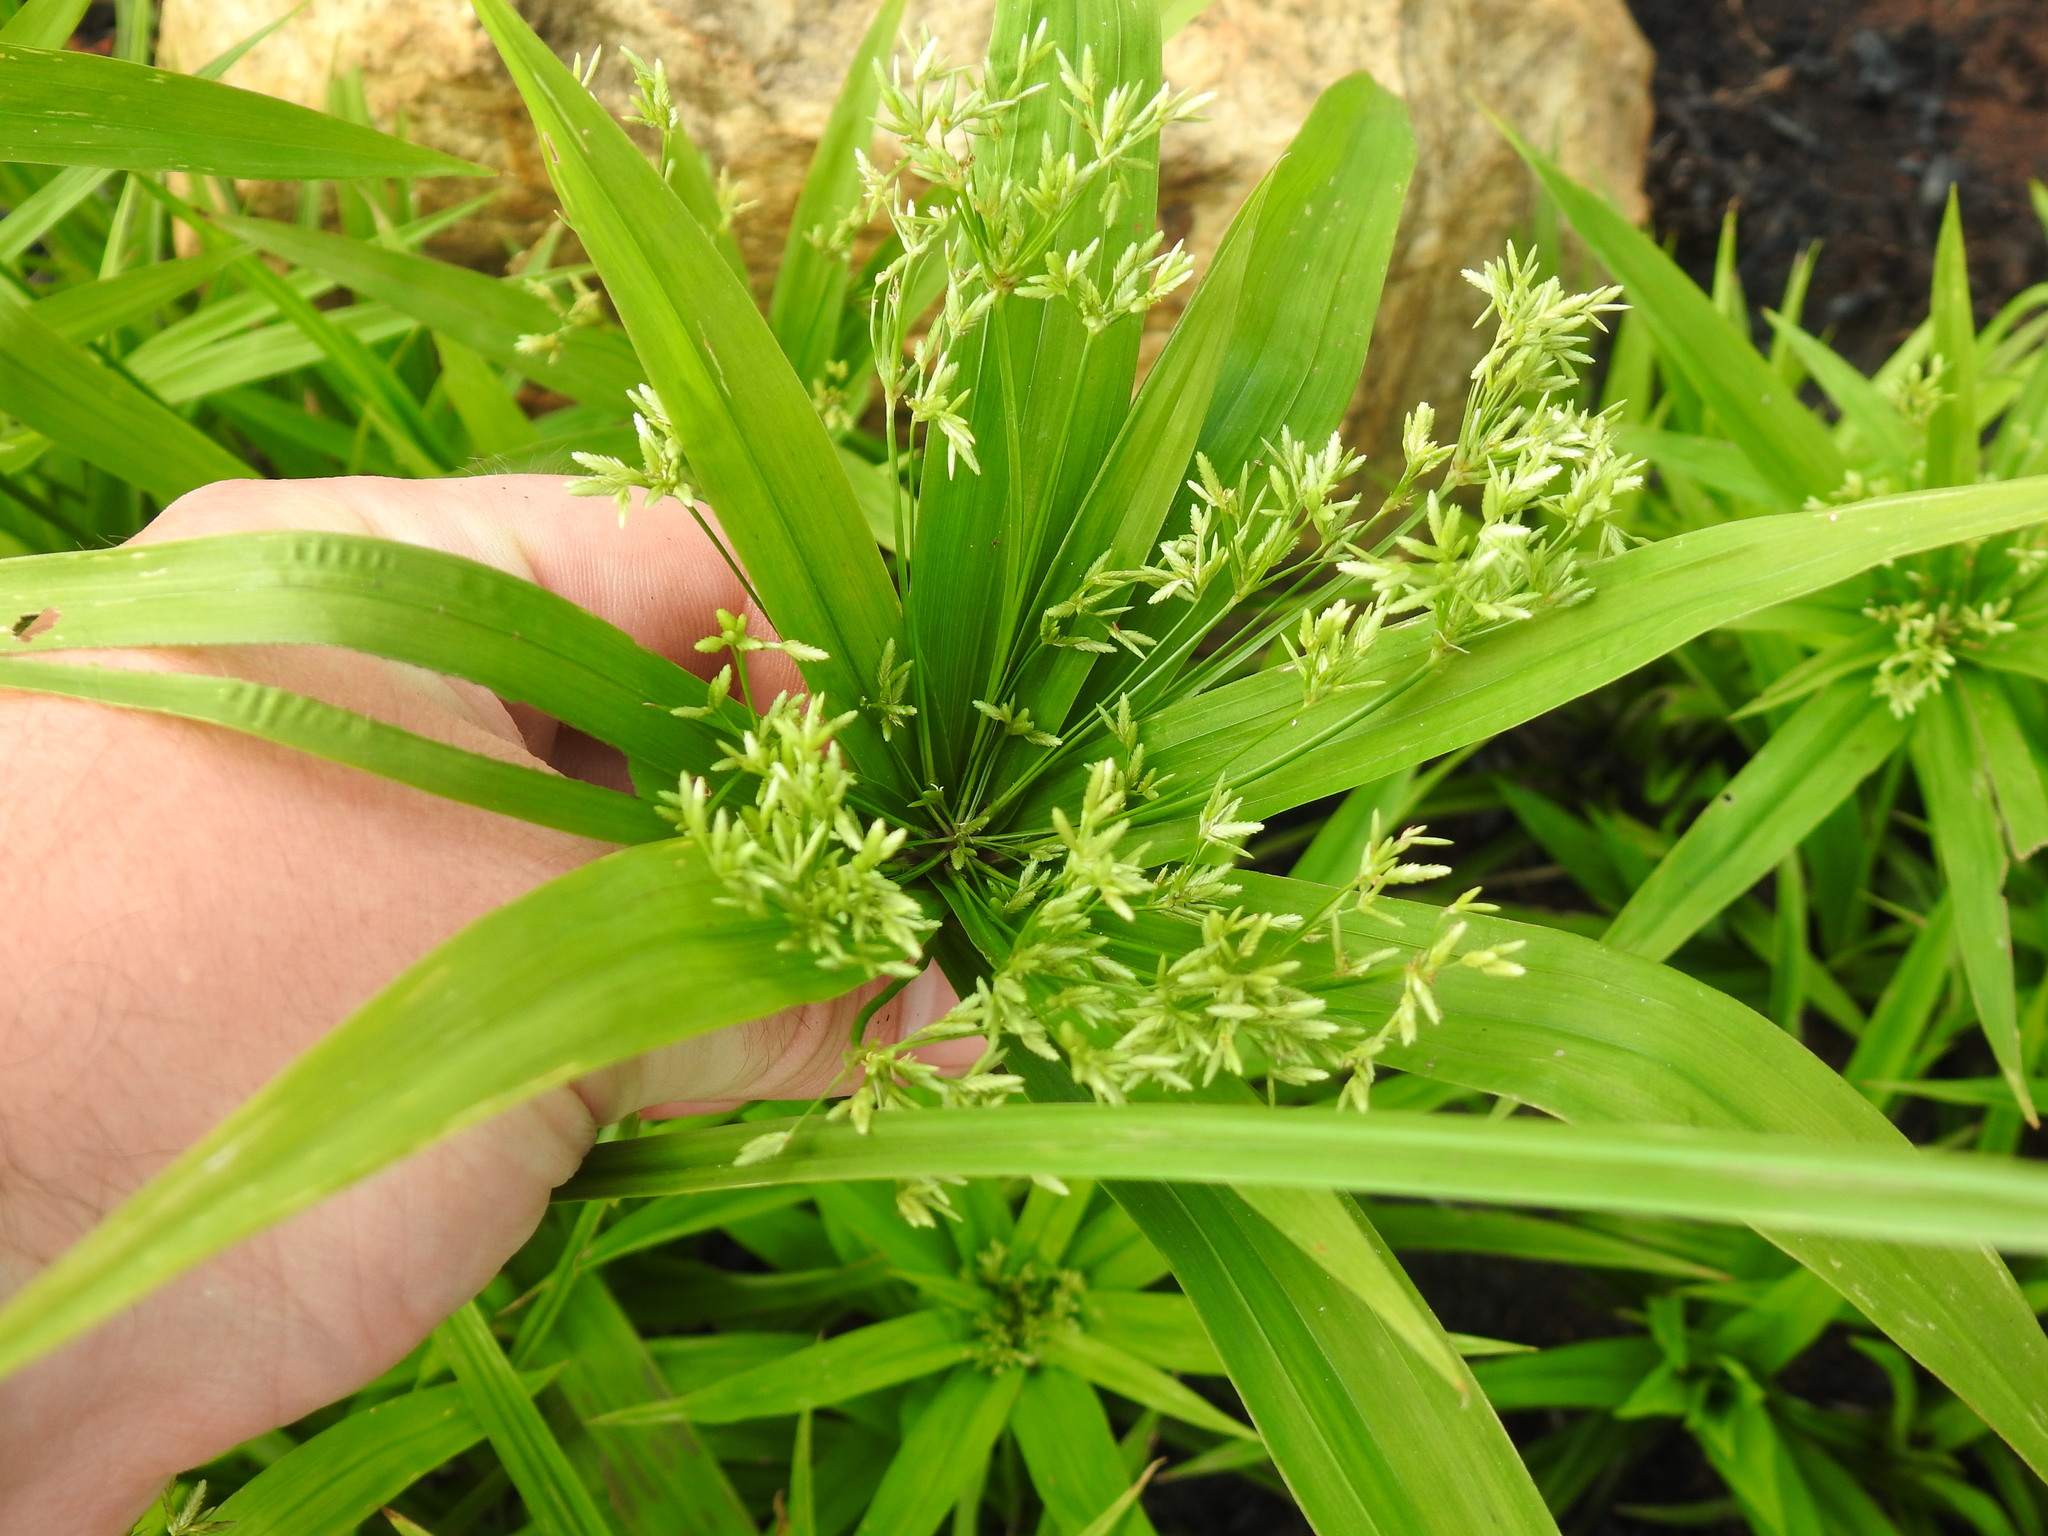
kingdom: Plantae
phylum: Tracheophyta
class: Liliopsida
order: Poales
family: Cyperaceae
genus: Cyperus
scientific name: Cyperus albostriatus
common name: Dwarf umbrella-grass
